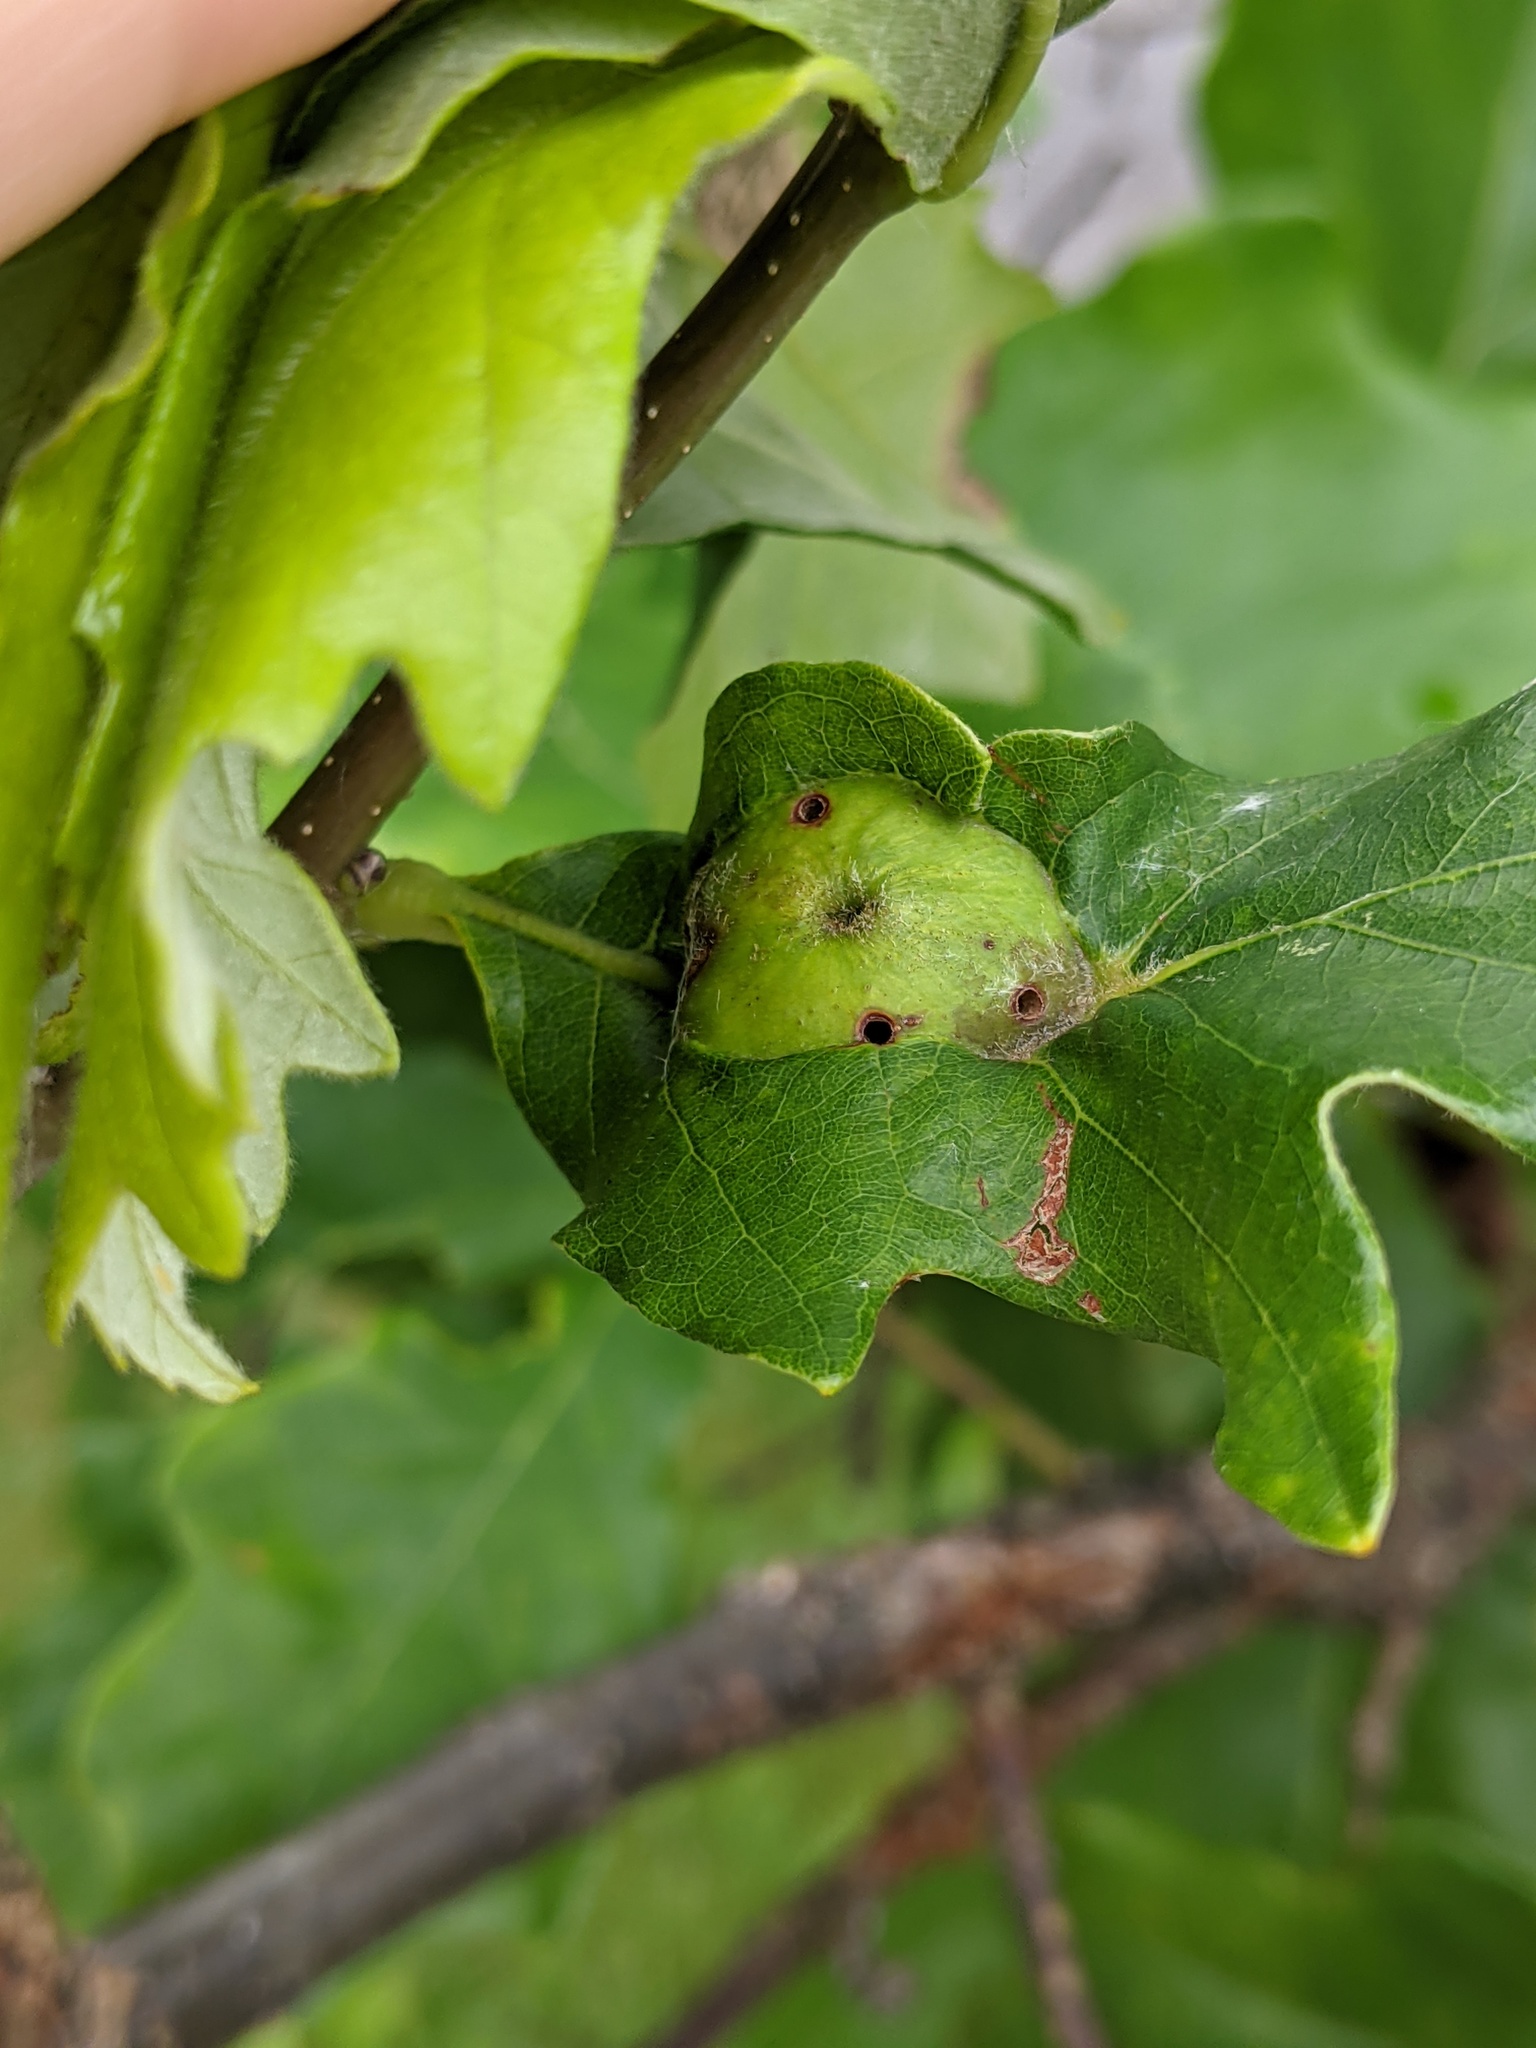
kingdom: Animalia
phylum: Arthropoda
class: Insecta
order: Hymenoptera
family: Cynipidae
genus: Andricus
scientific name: Andricus
